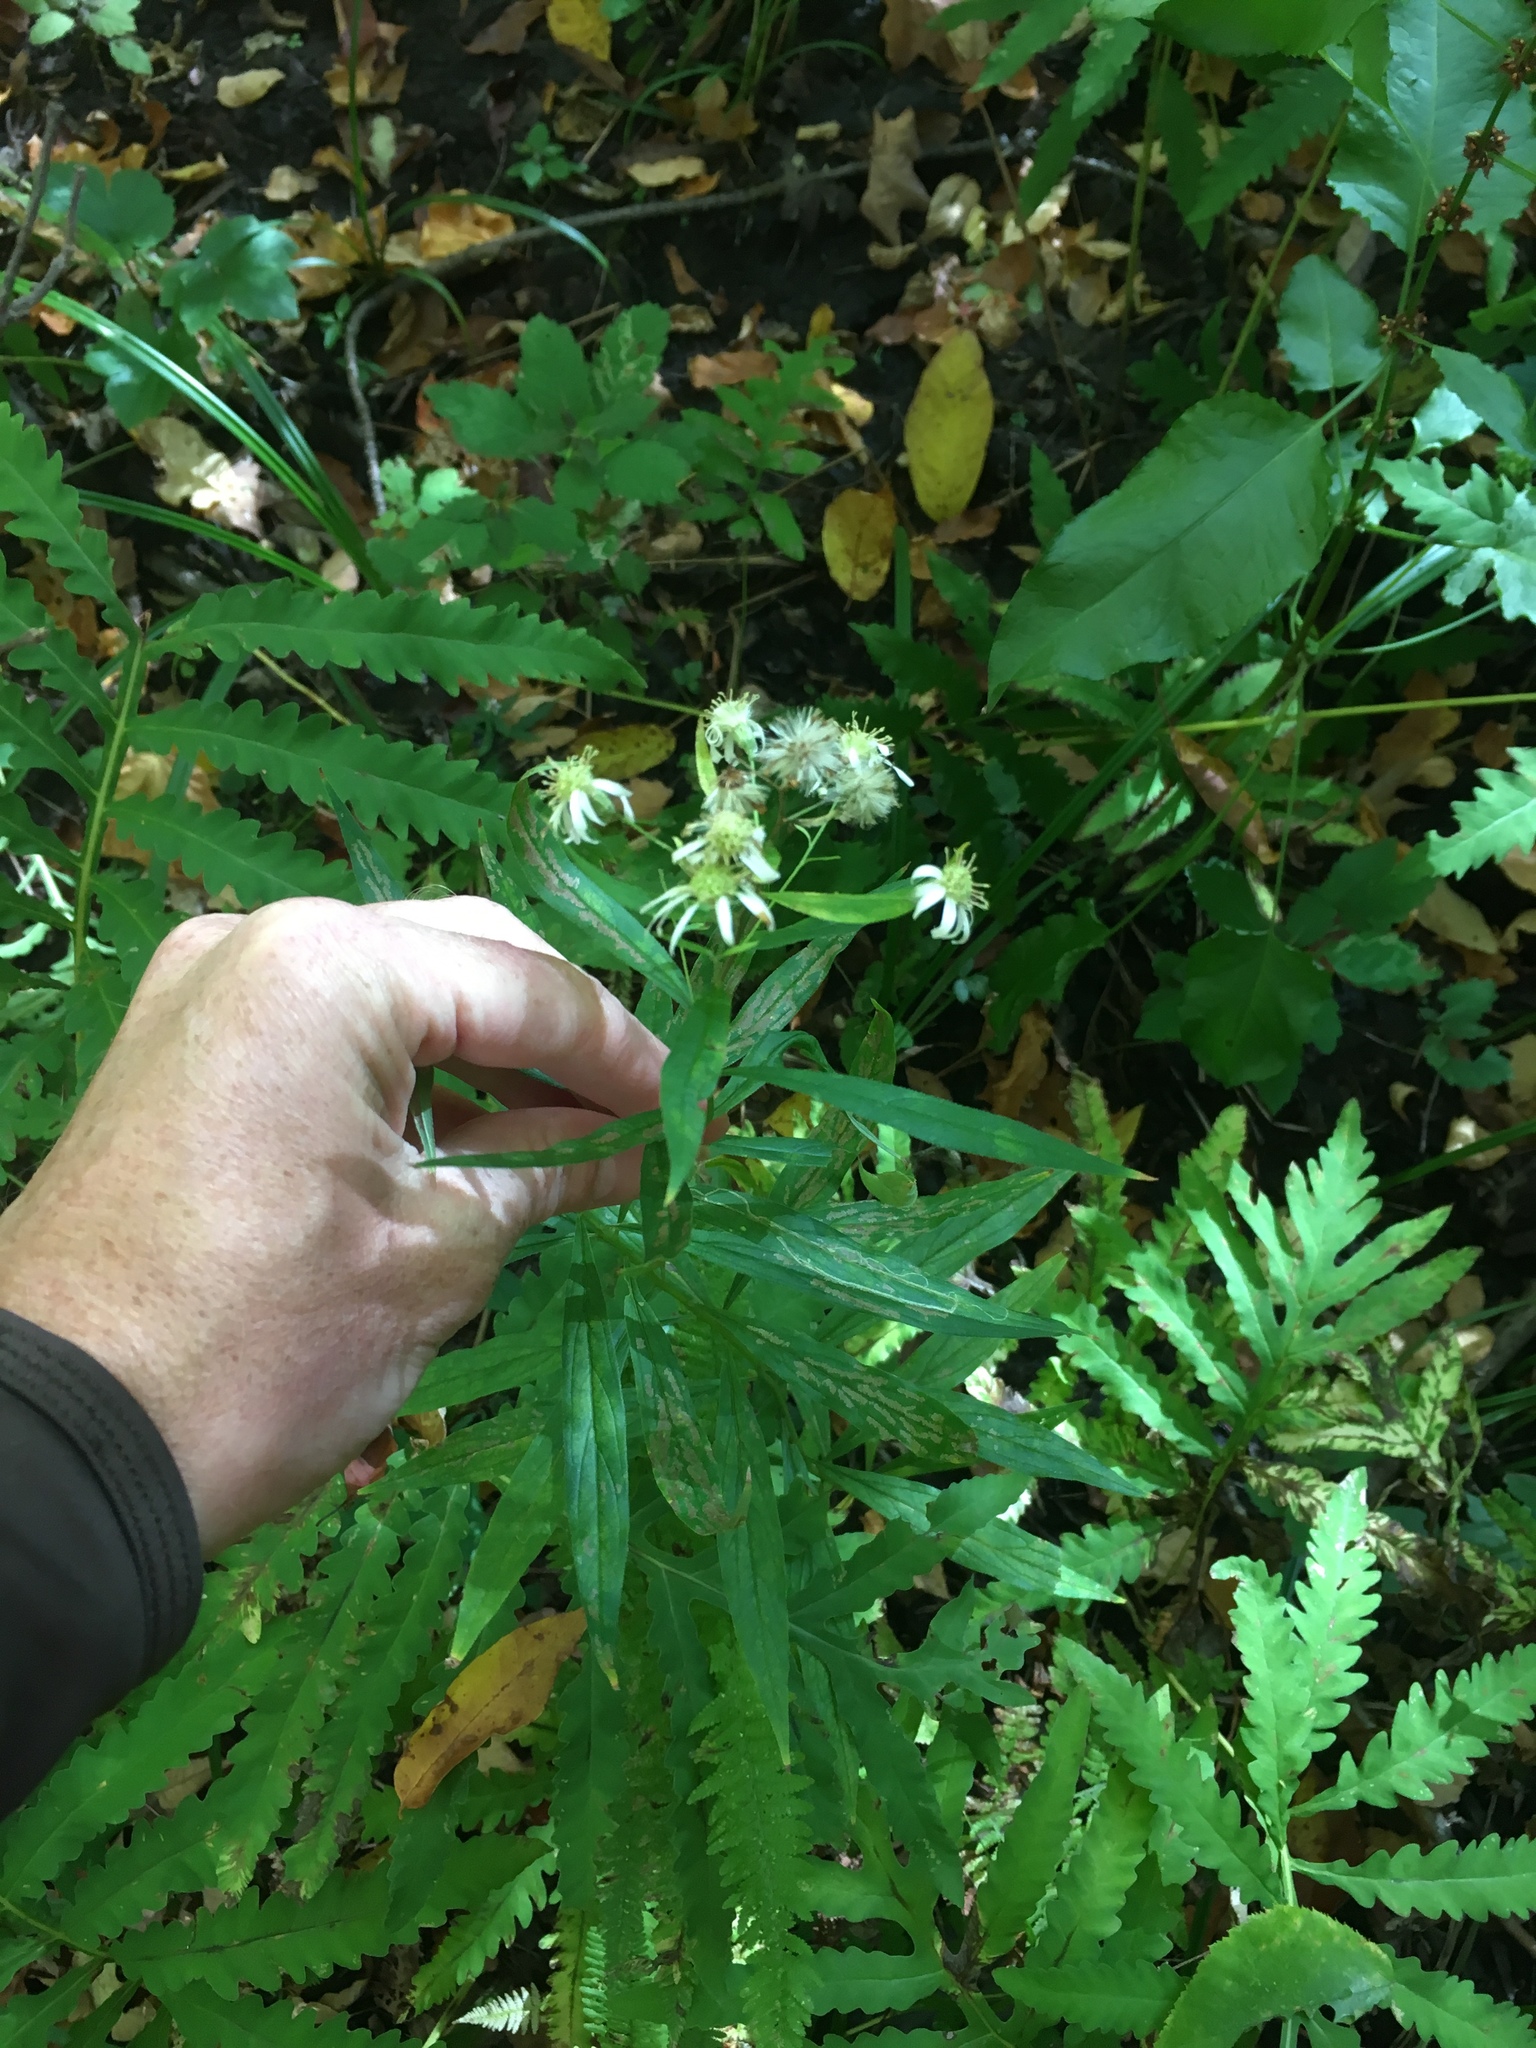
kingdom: Plantae
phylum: Tracheophyta
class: Magnoliopsida
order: Asterales
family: Asteraceae
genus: Doellingeria
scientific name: Doellingeria umbellata
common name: Flat-top white aster
